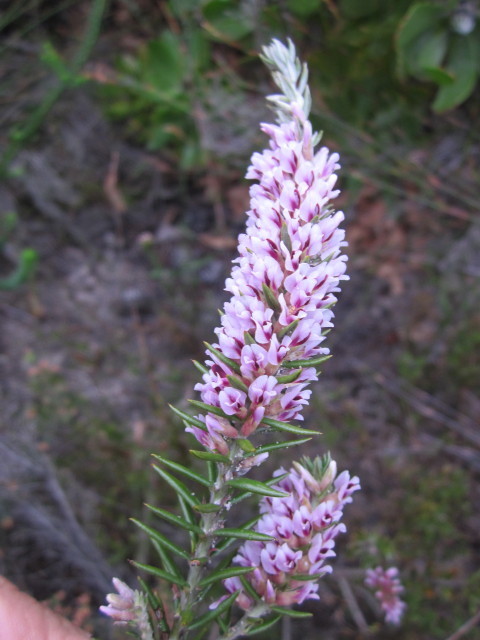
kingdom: Plantae
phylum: Tracheophyta
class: Magnoliopsida
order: Fabales
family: Fabaceae
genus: Amphithalea
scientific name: Amphithalea ericifolia
